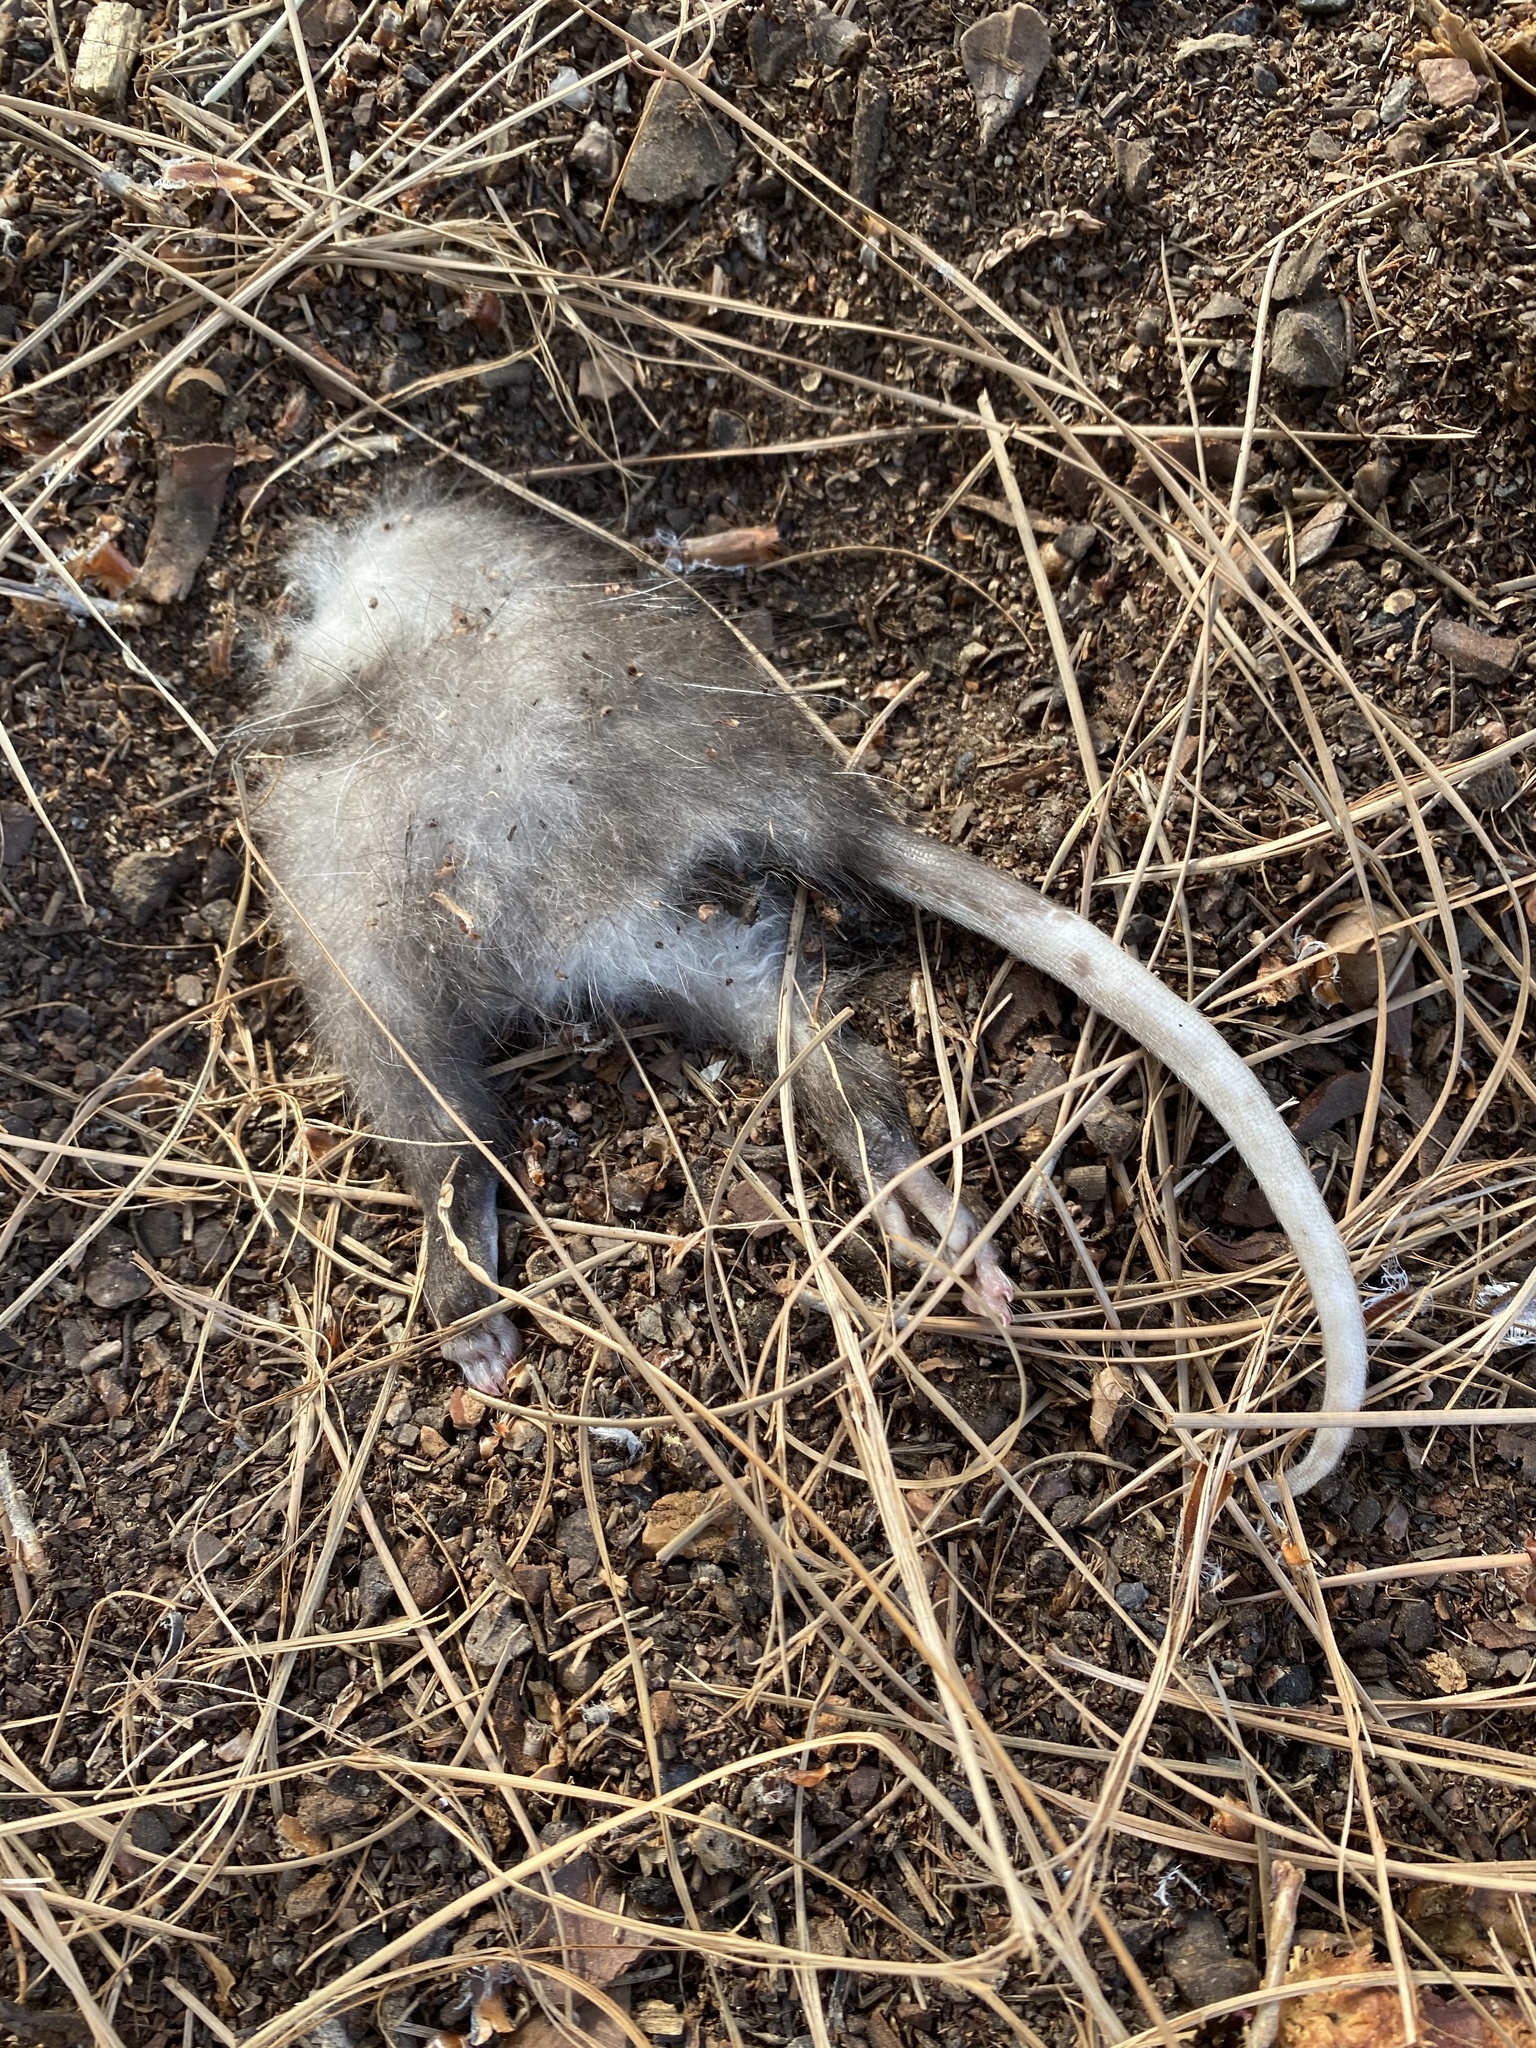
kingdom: Animalia
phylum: Chordata
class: Mammalia
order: Didelphimorphia
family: Didelphidae
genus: Didelphis
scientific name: Didelphis virginiana
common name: Virginia opossum
